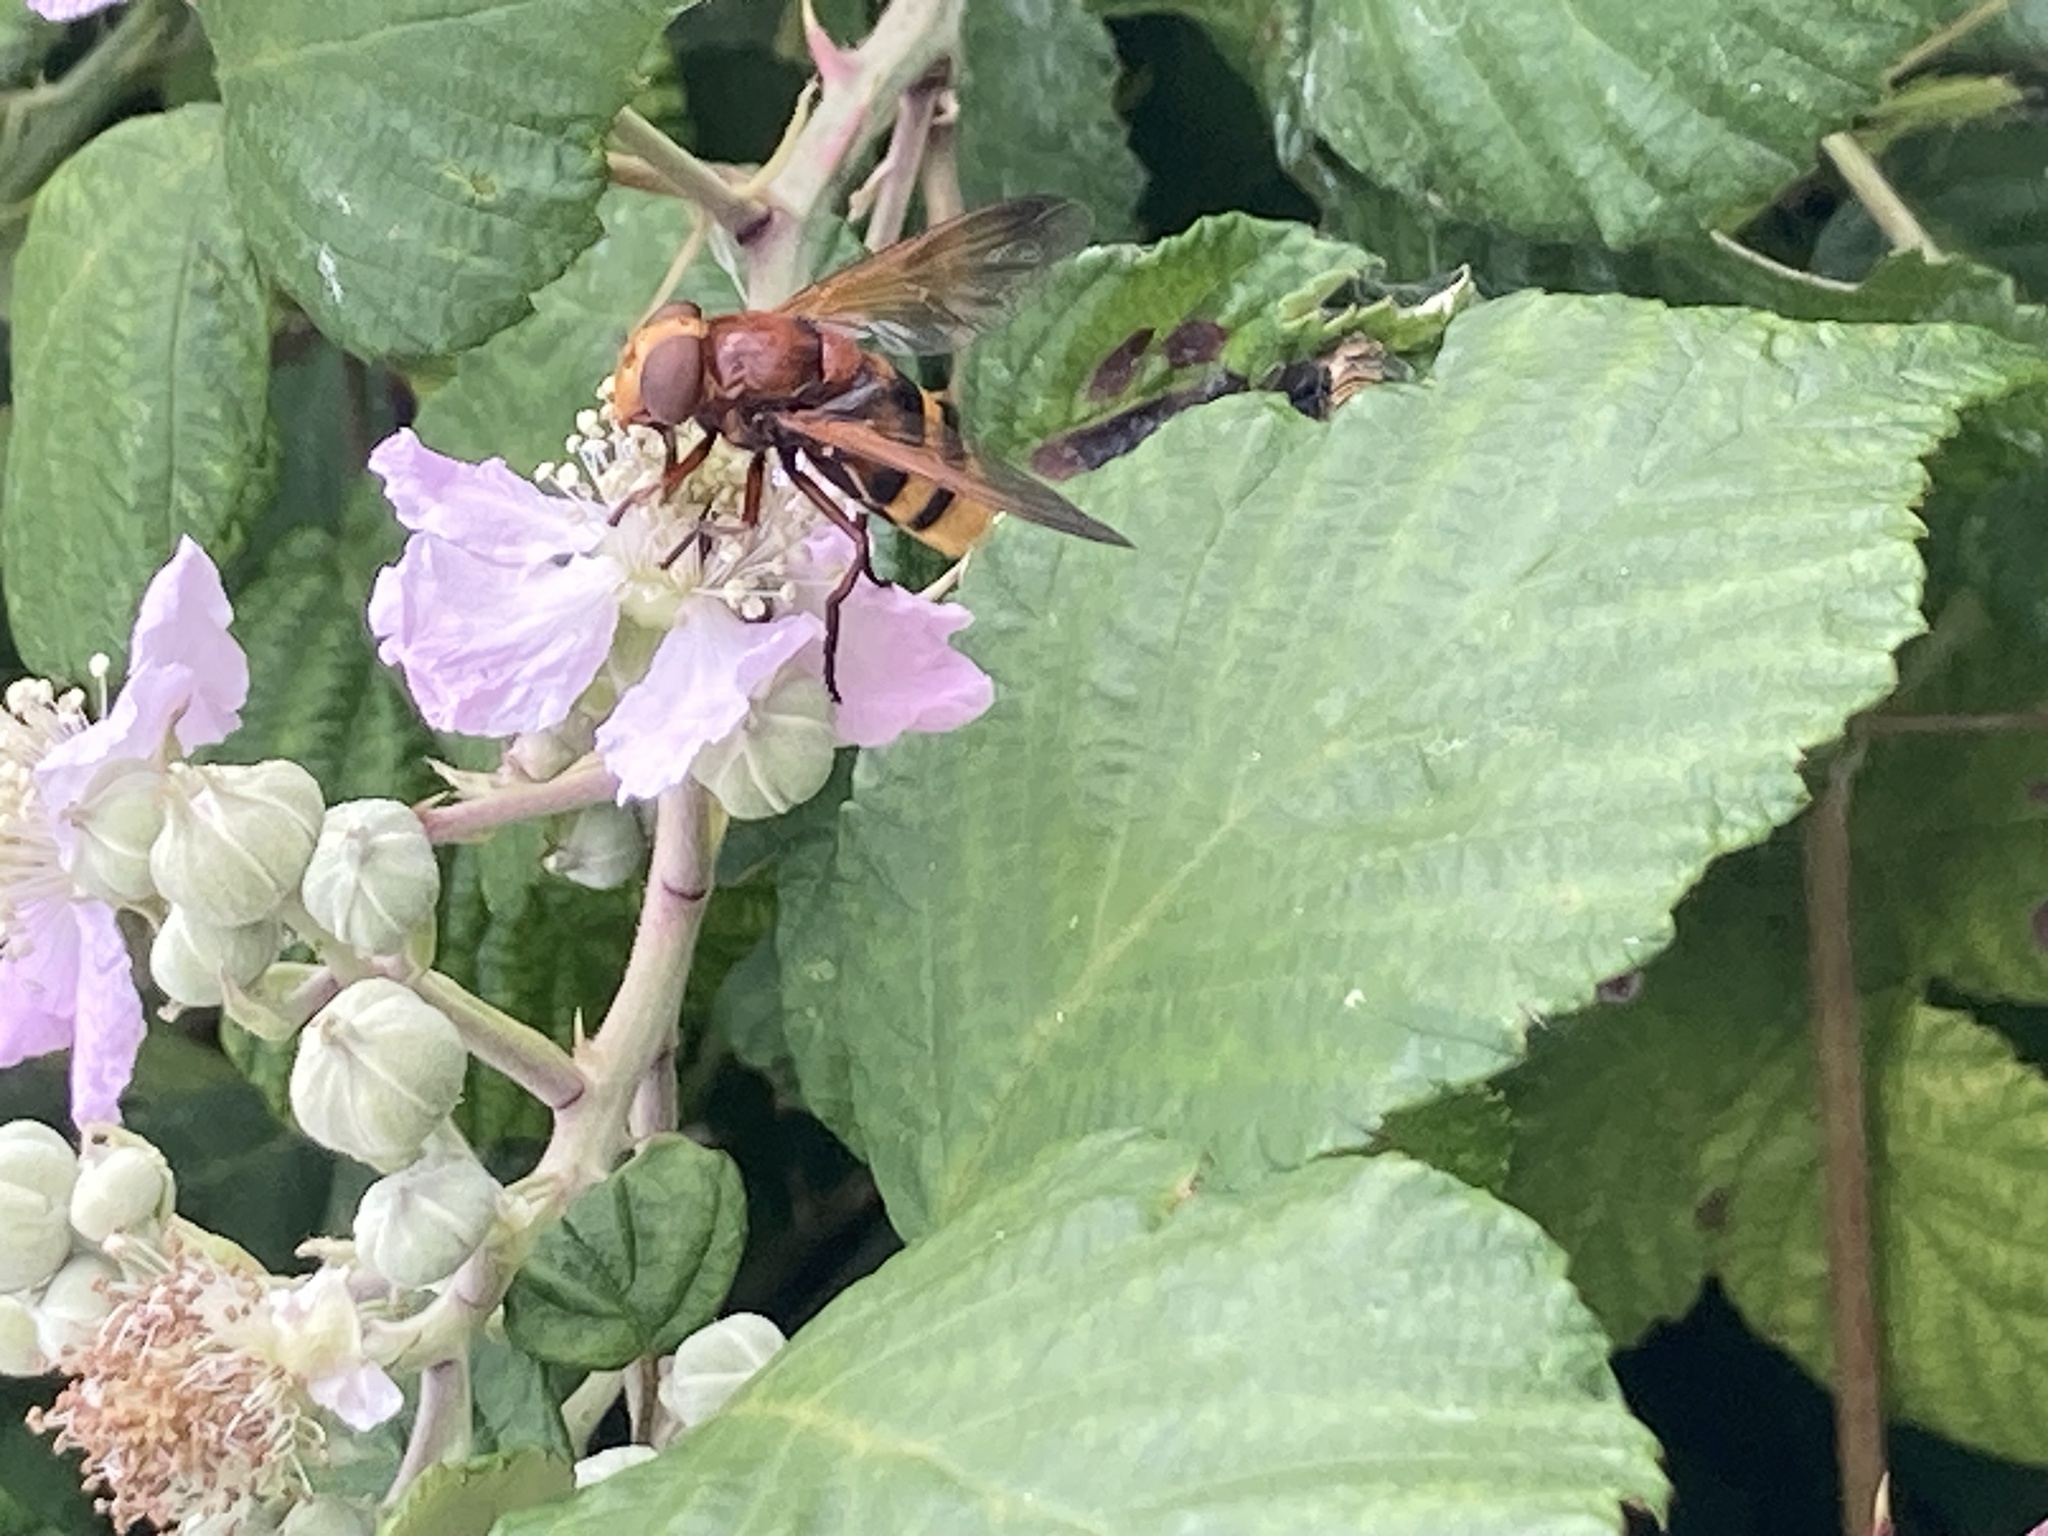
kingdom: Animalia
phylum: Arthropoda
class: Insecta
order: Diptera
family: Syrphidae
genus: Volucella
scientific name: Volucella zonaria
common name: Hornet hoverfly
